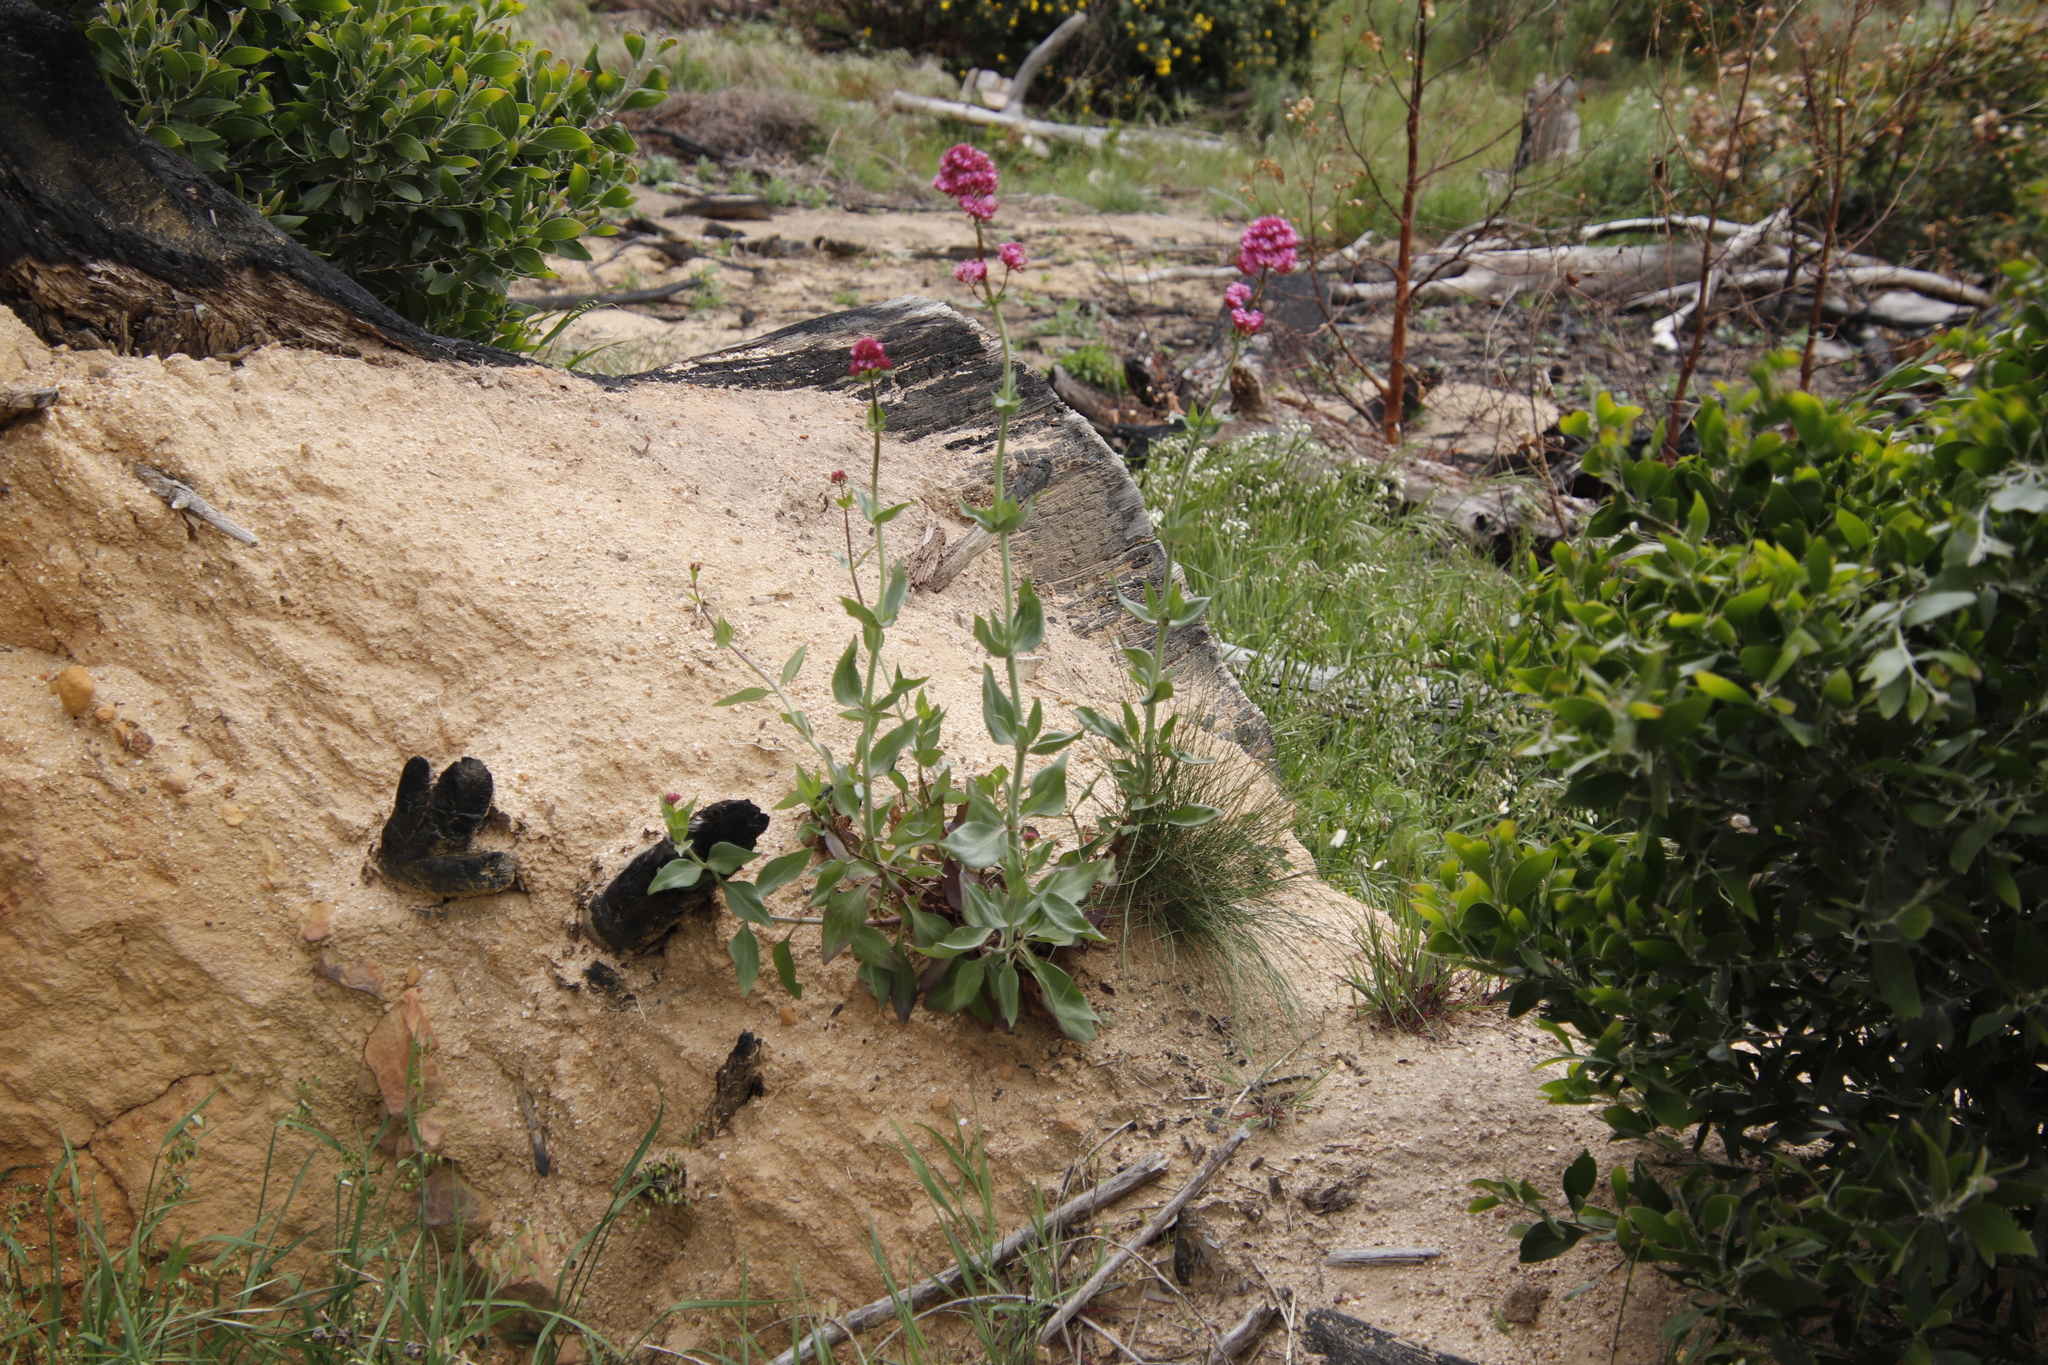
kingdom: Plantae
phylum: Tracheophyta
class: Magnoliopsida
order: Dipsacales
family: Caprifoliaceae
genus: Centranthus
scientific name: Centranthus ruber
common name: Red valerian
